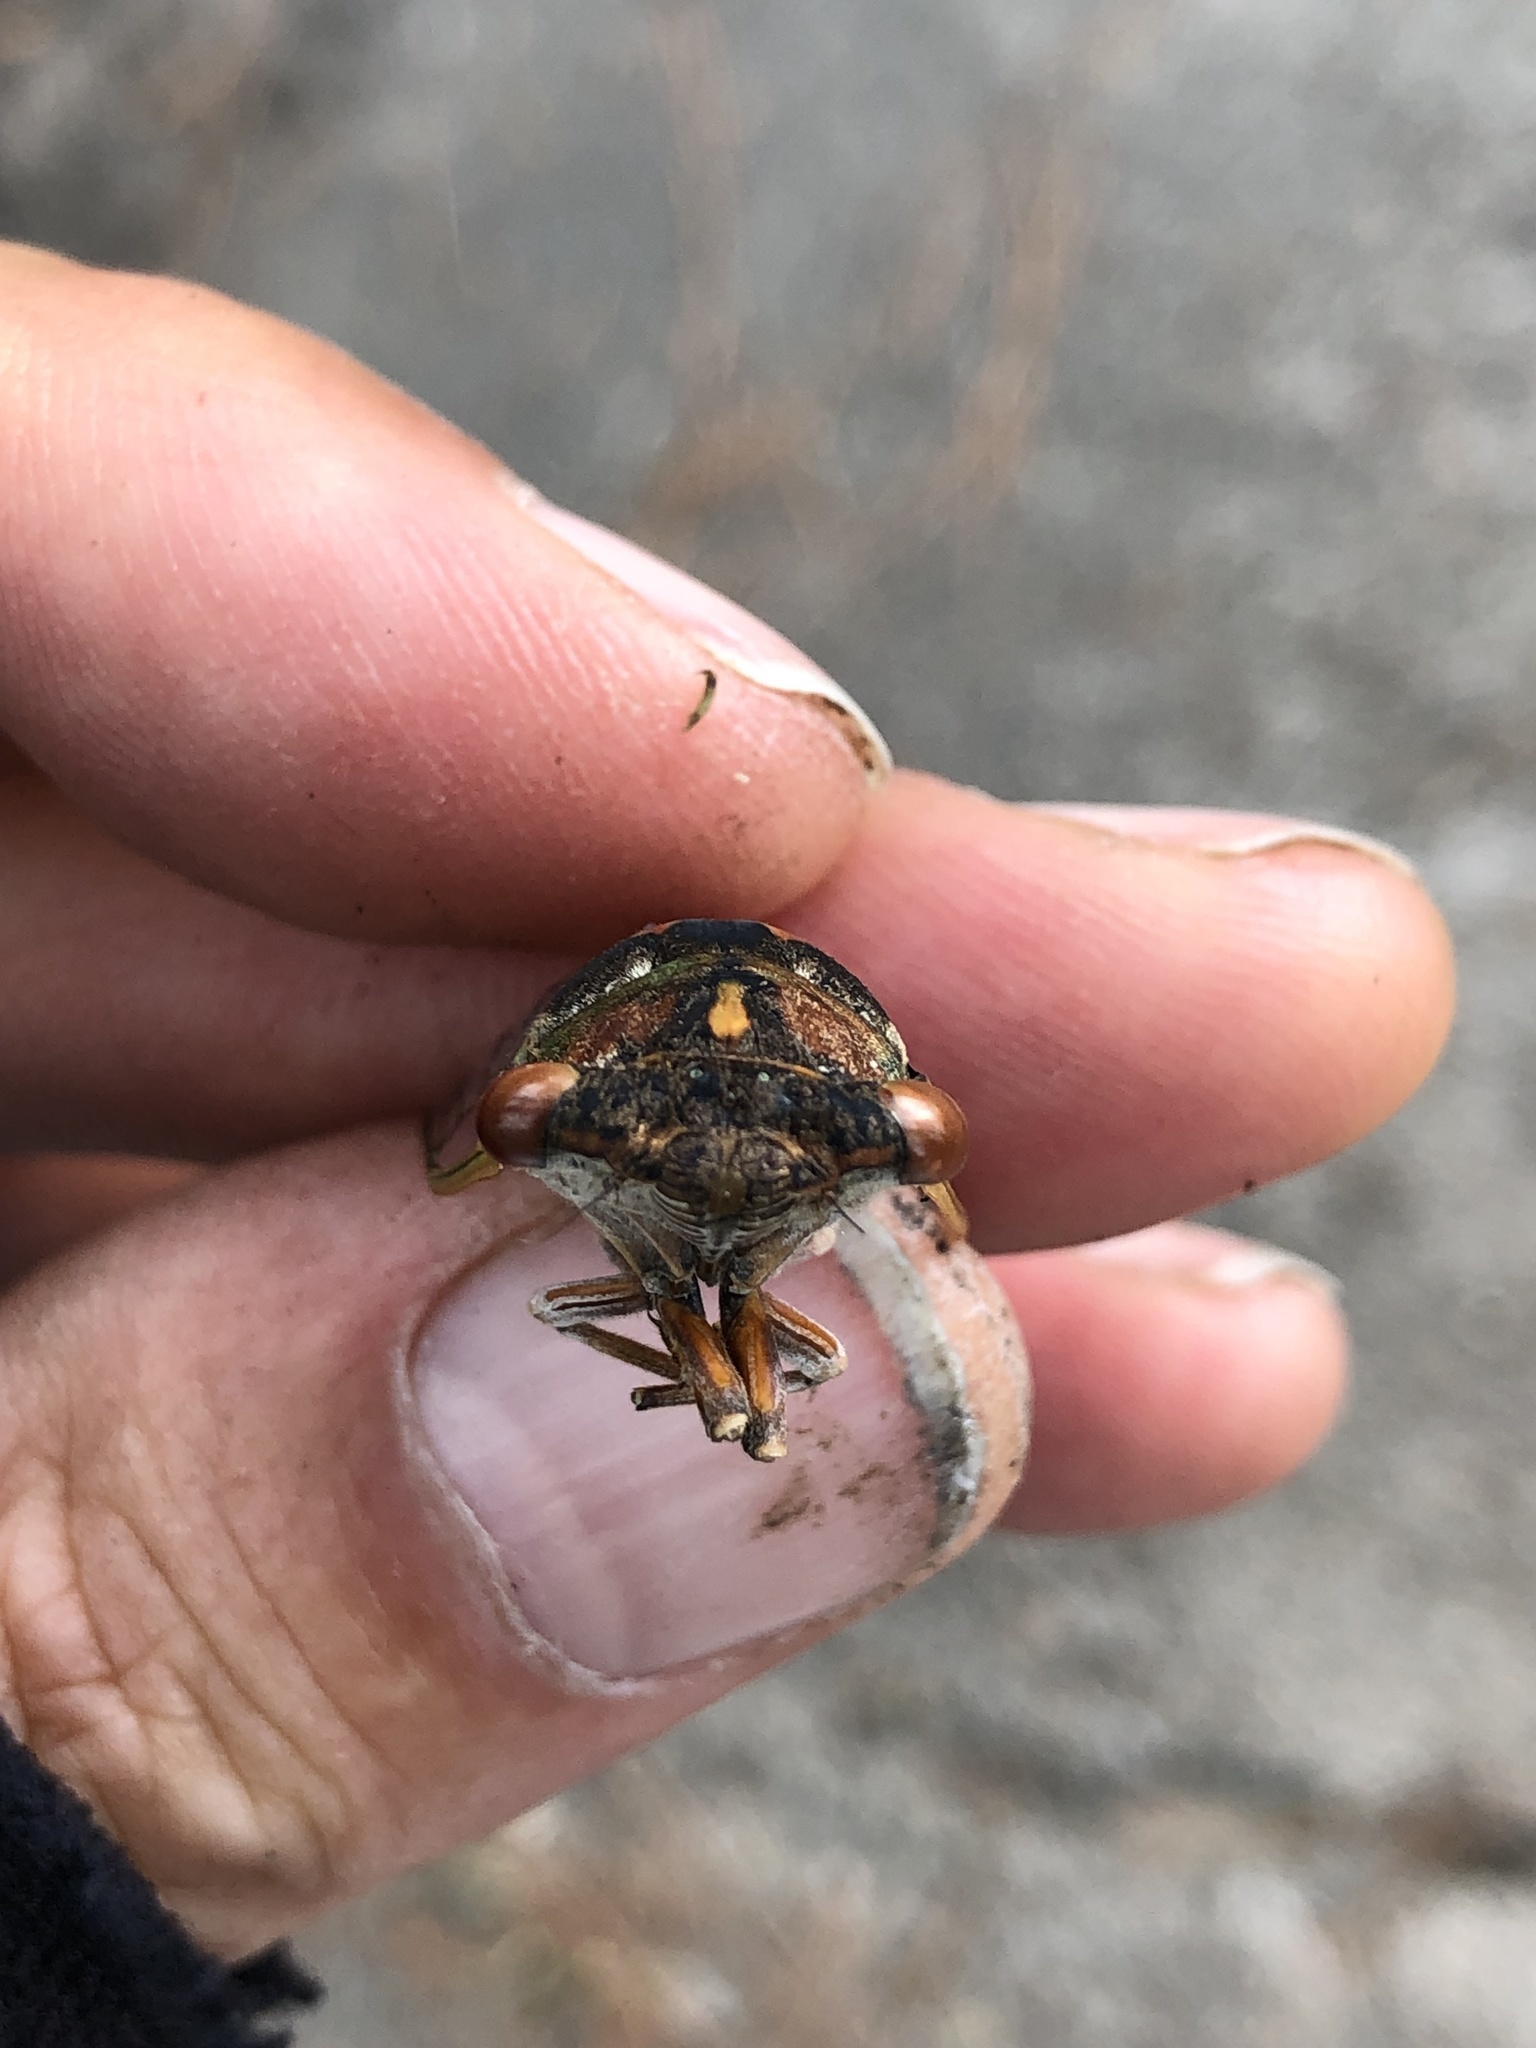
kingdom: Animalia
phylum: Arthropoda
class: Insecta
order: Hemiptera
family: Cicadidae
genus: Neotibicen
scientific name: Neotibicen davisi
